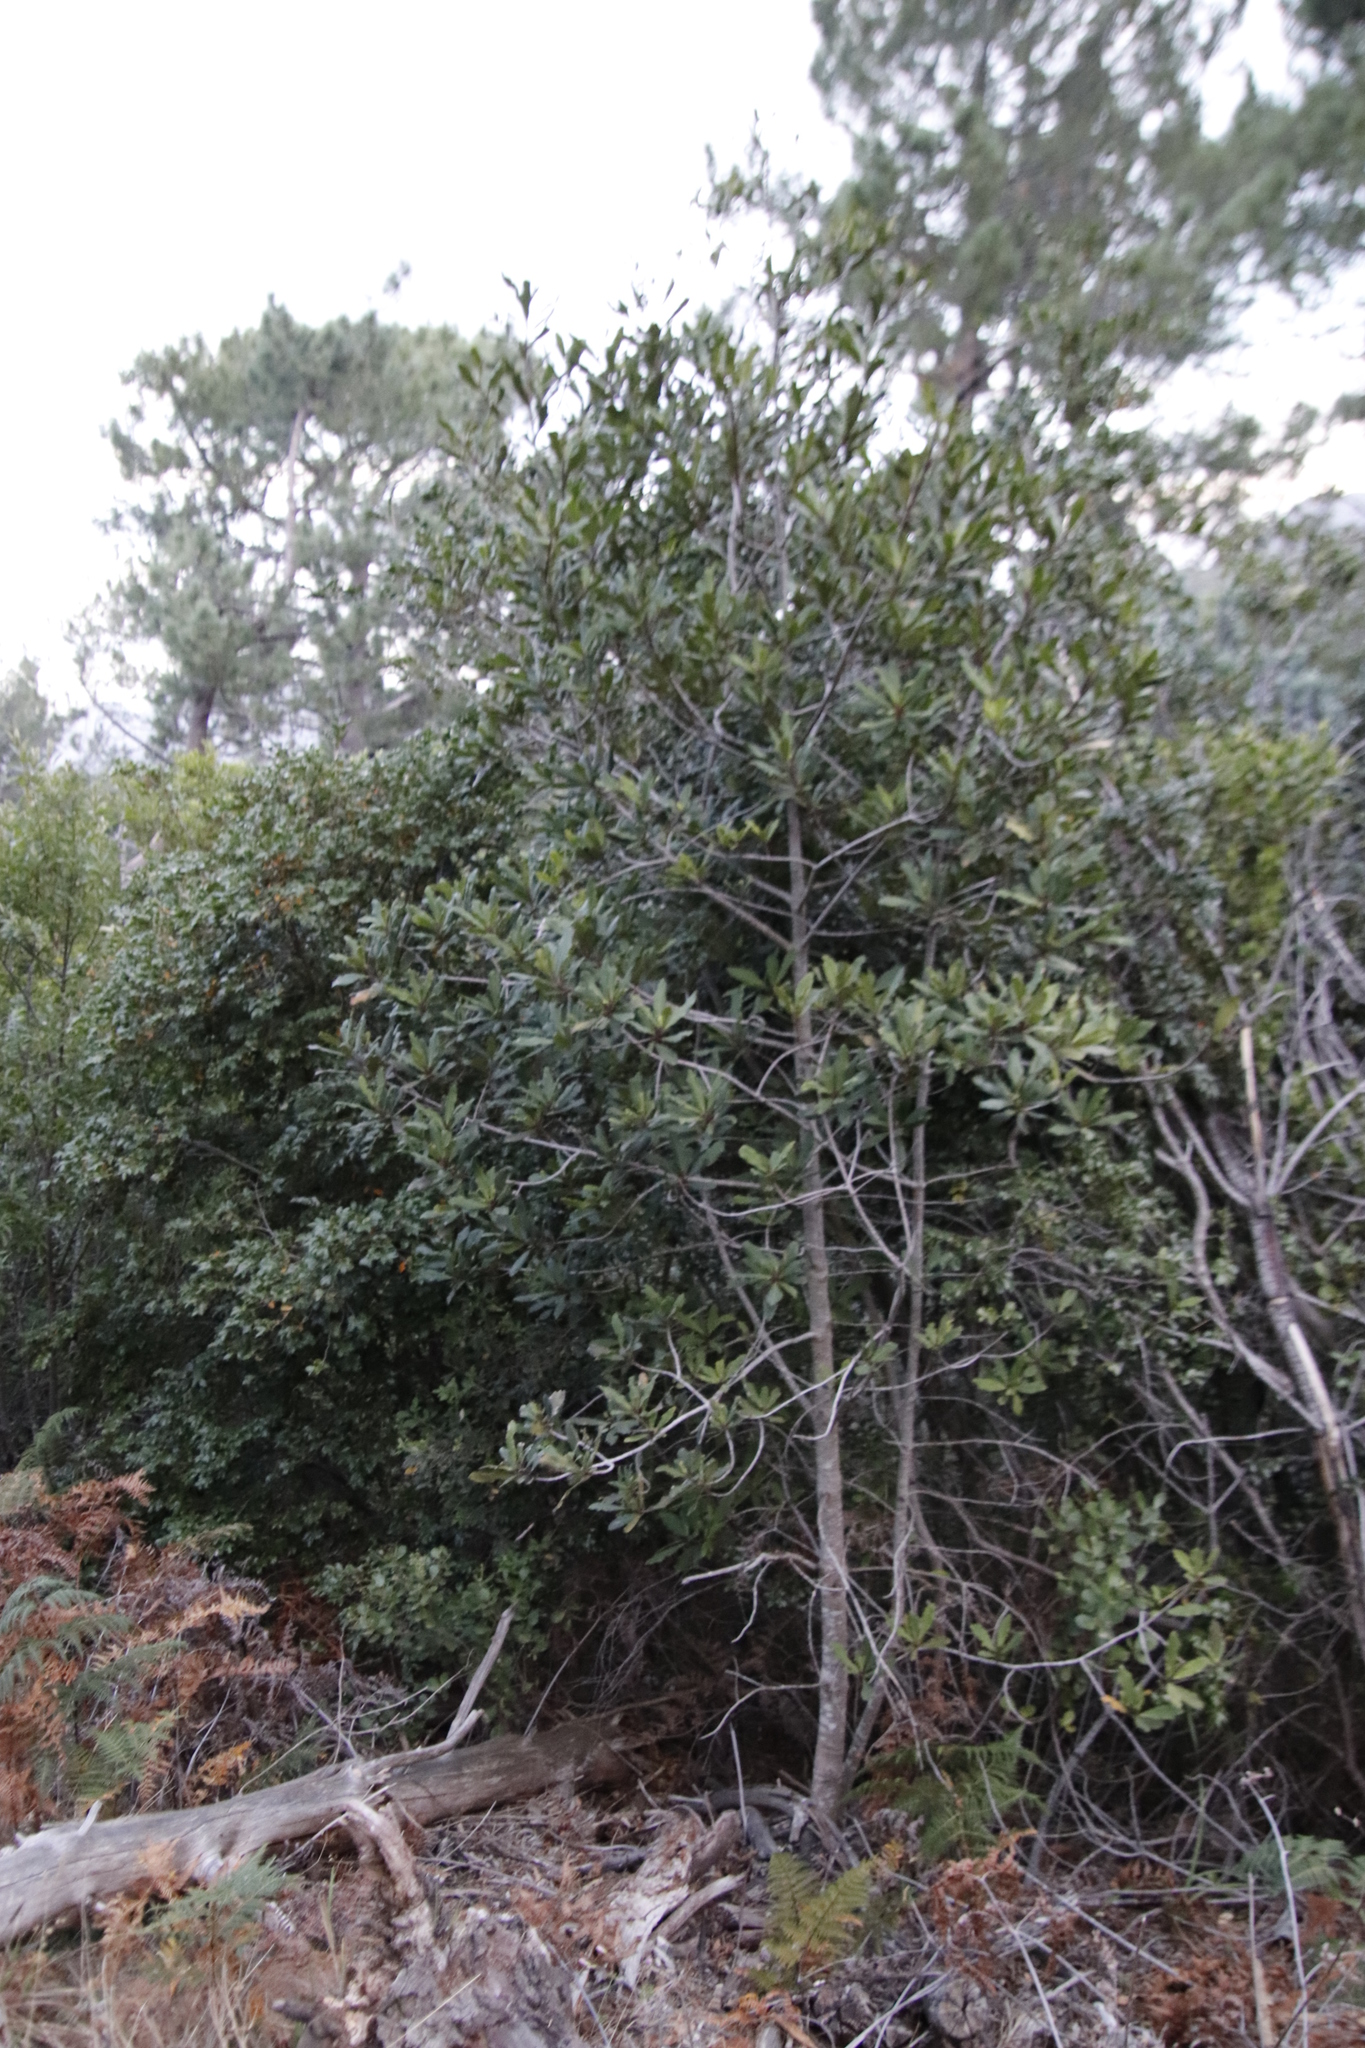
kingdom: Plantae
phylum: Tracheophyta
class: Magnoliopsida
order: Ericales
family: Primulaceae
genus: Myrsine
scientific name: Myrsine melanophloeos
